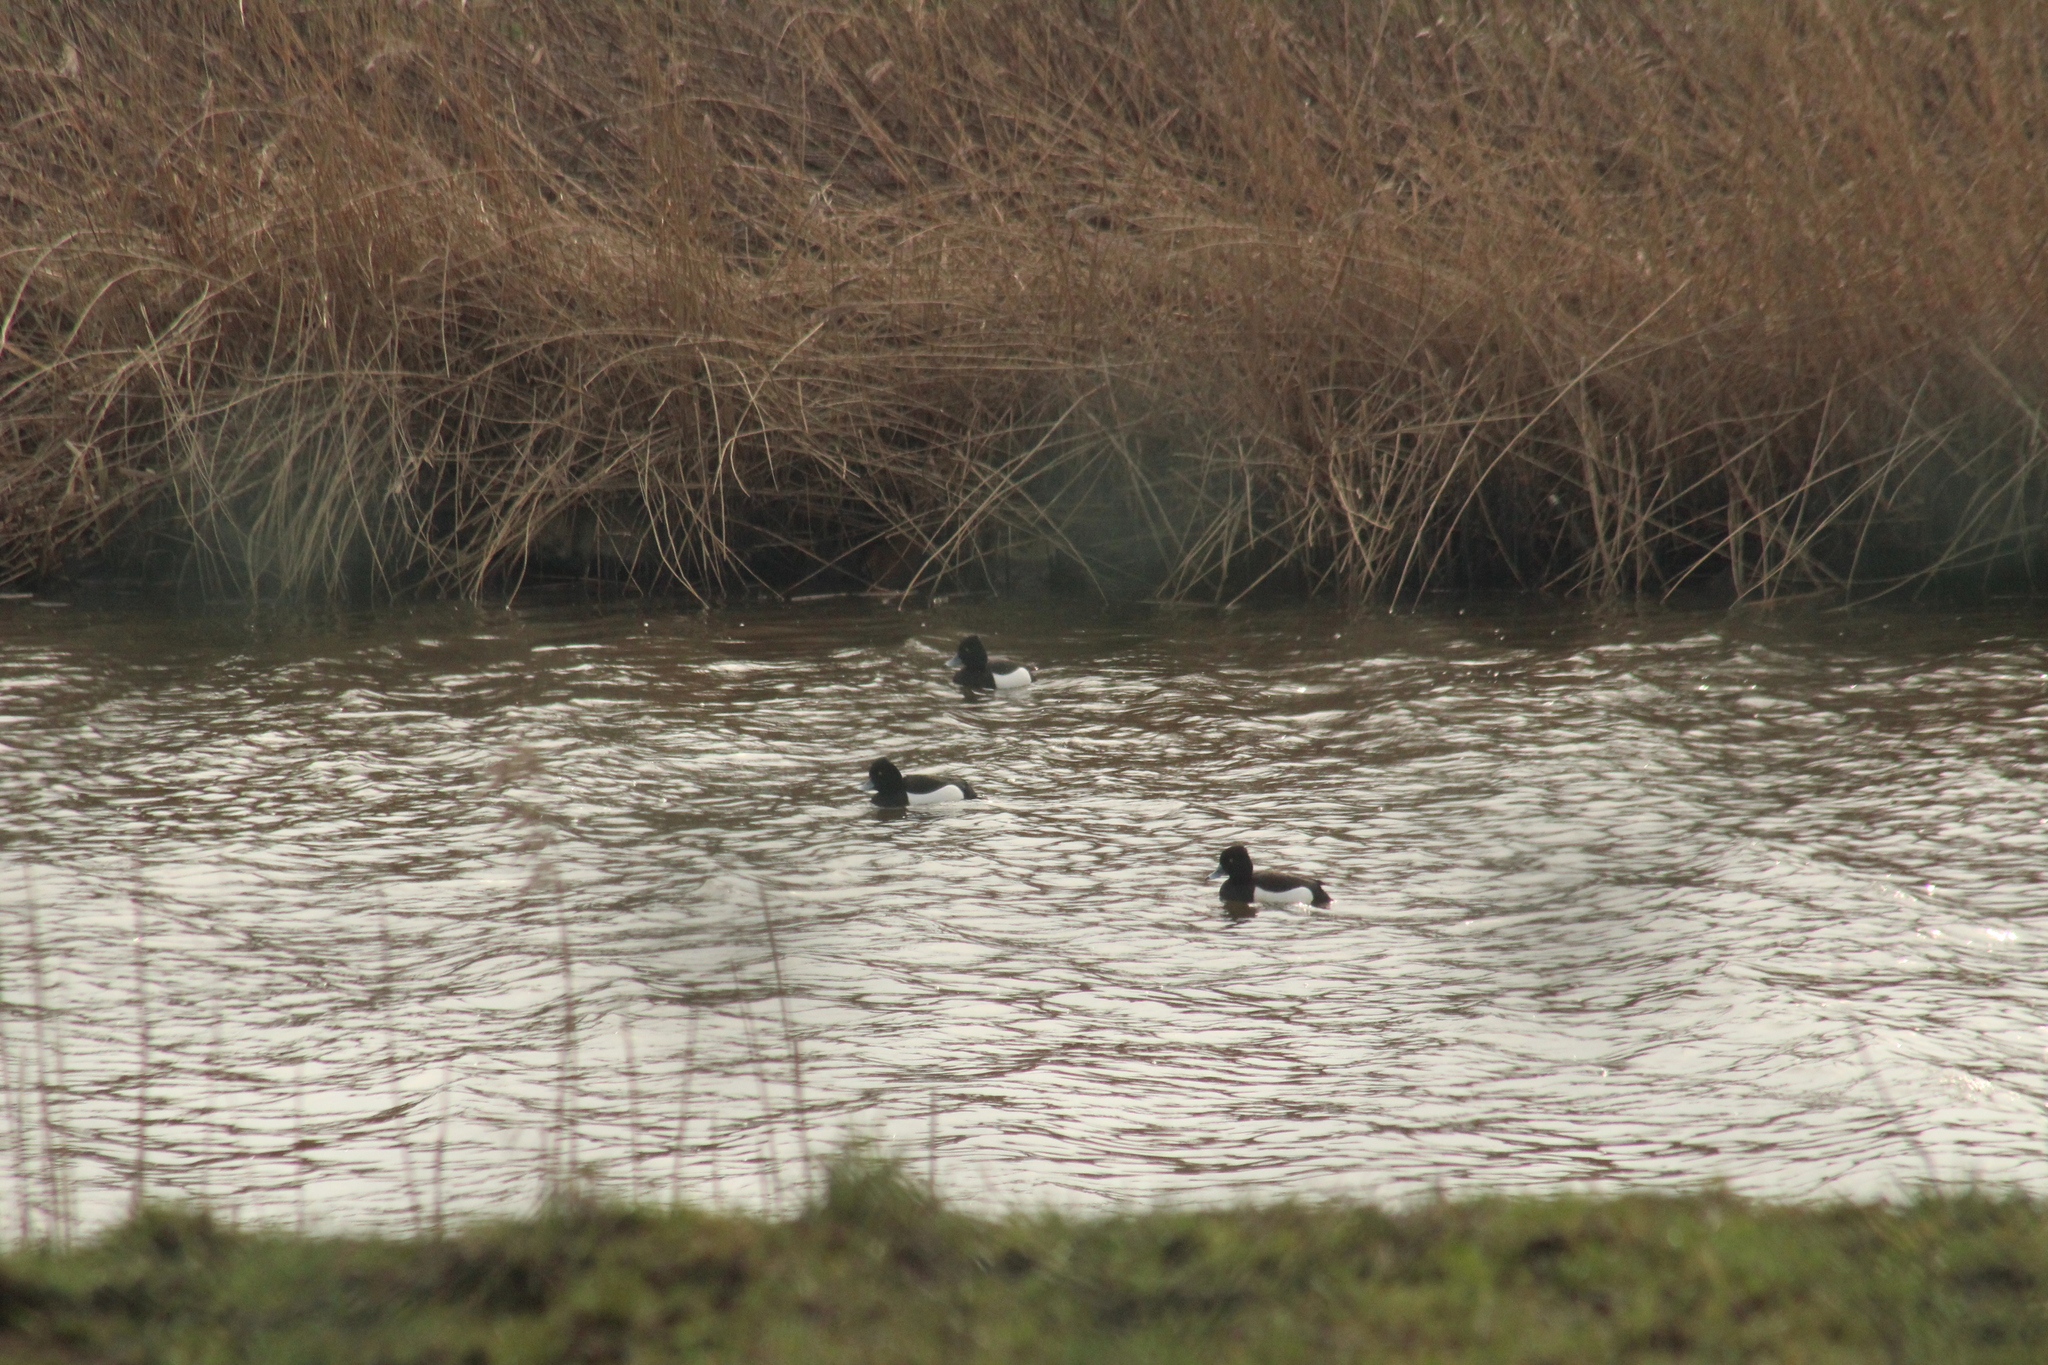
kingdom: Animalia
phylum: Chordata
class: Aves
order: Anseriformes
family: Anatidae
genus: Aythya
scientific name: Aythya fuligula
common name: Tufted duck
